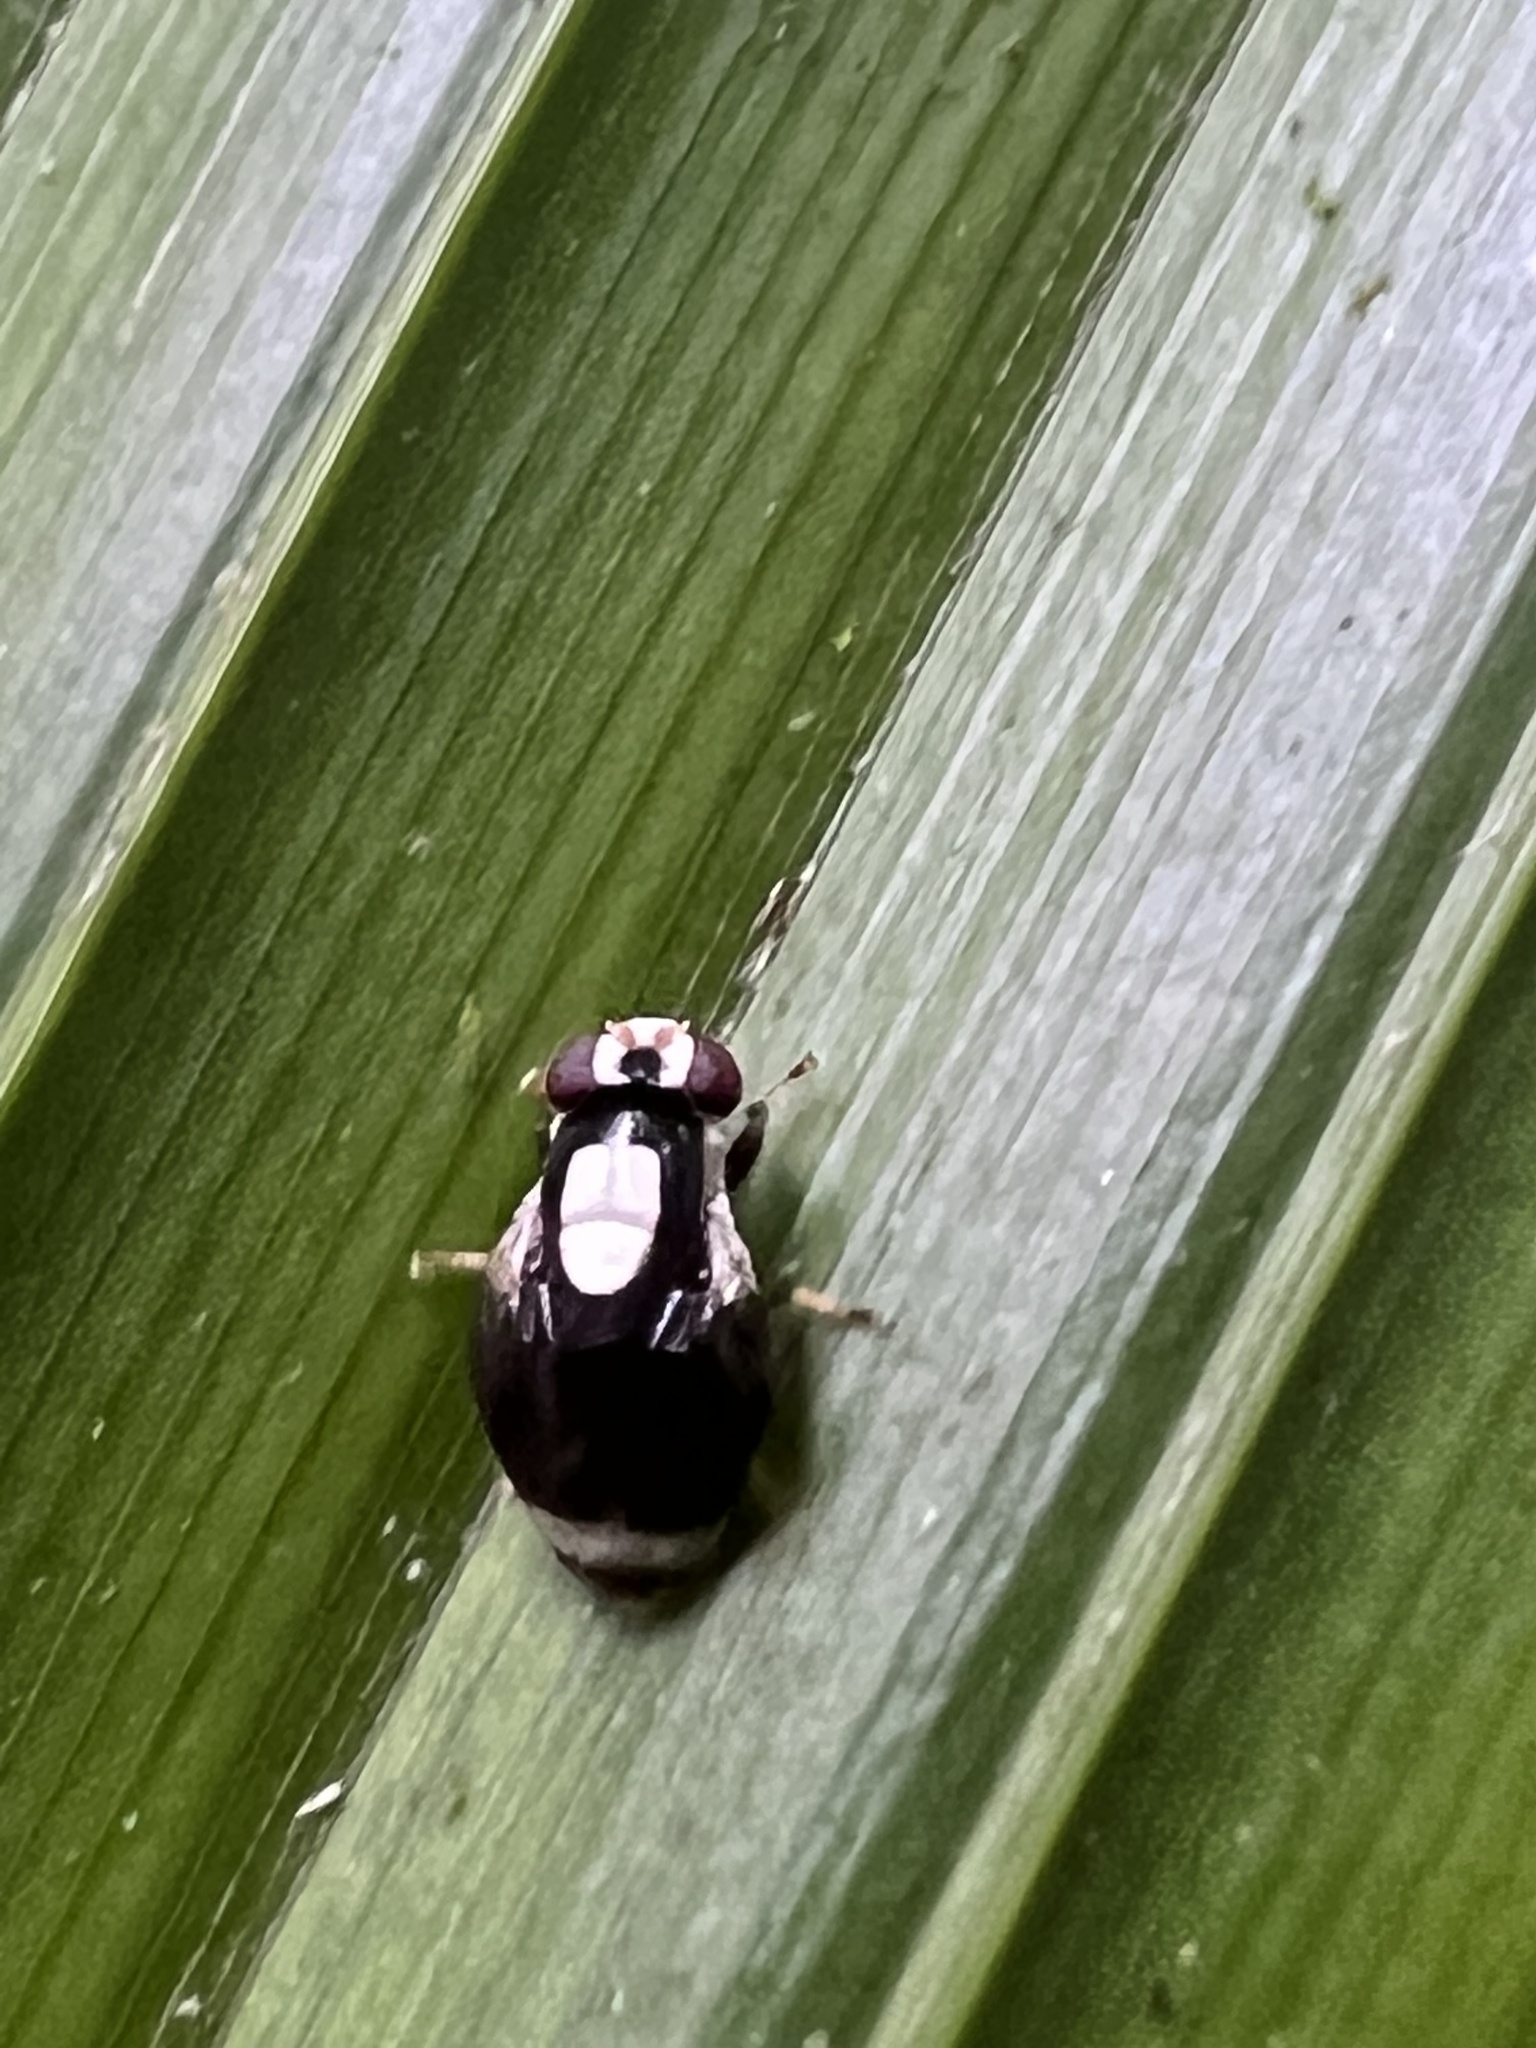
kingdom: Animalia
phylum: Arthropoda
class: Insecta
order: Diptera
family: Periscelididae
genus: Scutops
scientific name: Scutops chapmani
